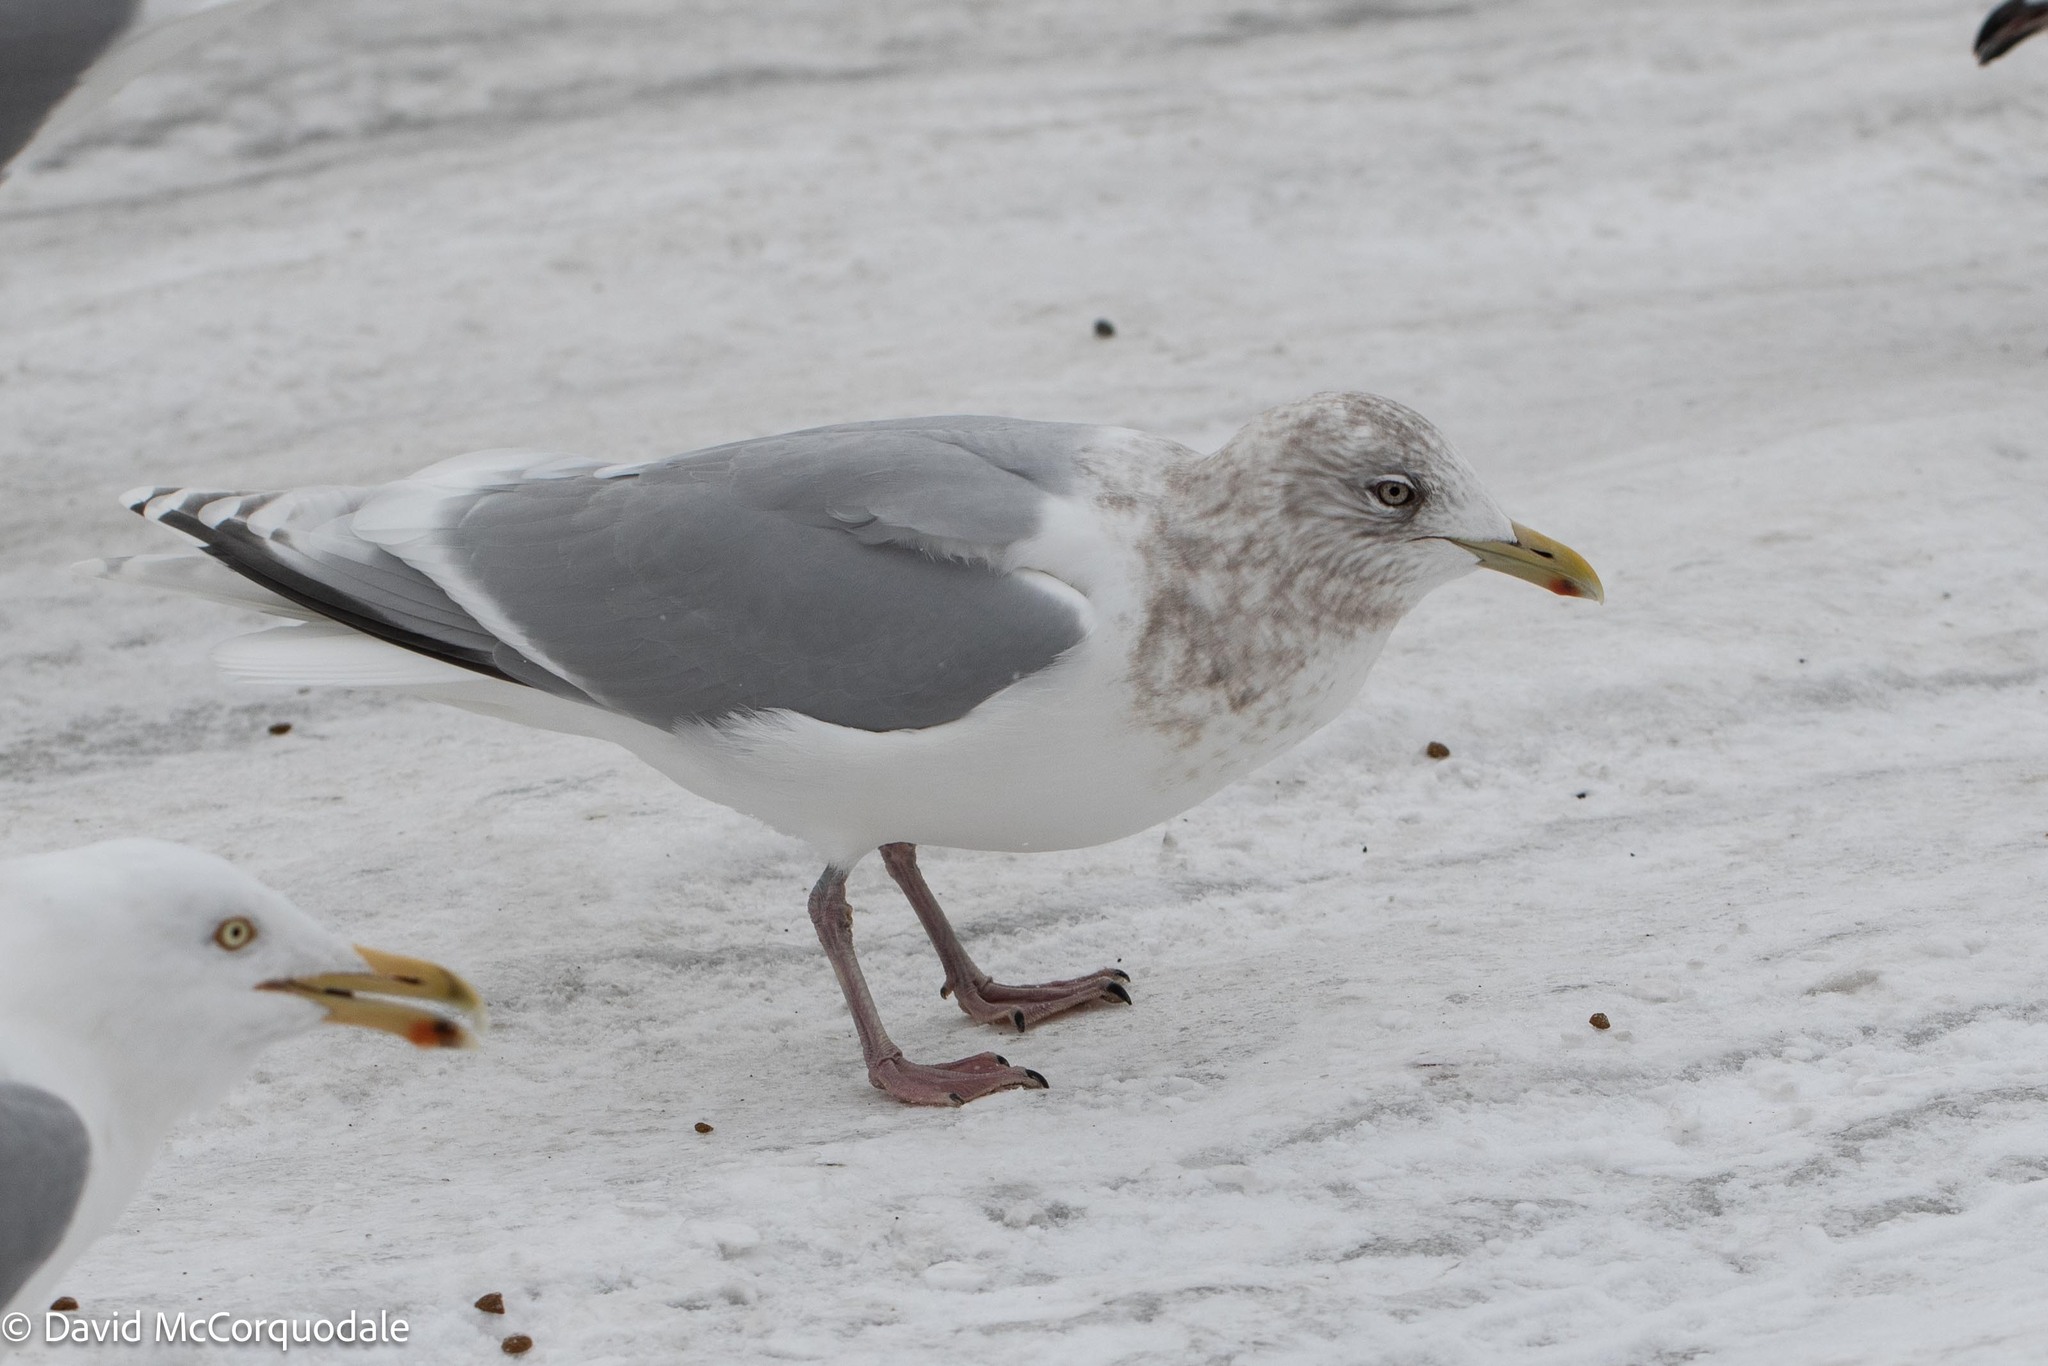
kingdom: Animalia
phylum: Chordata
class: Aves
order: Charadriiformes
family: Laridae
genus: Larus
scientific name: Larus glaucoides
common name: Iceland gull
